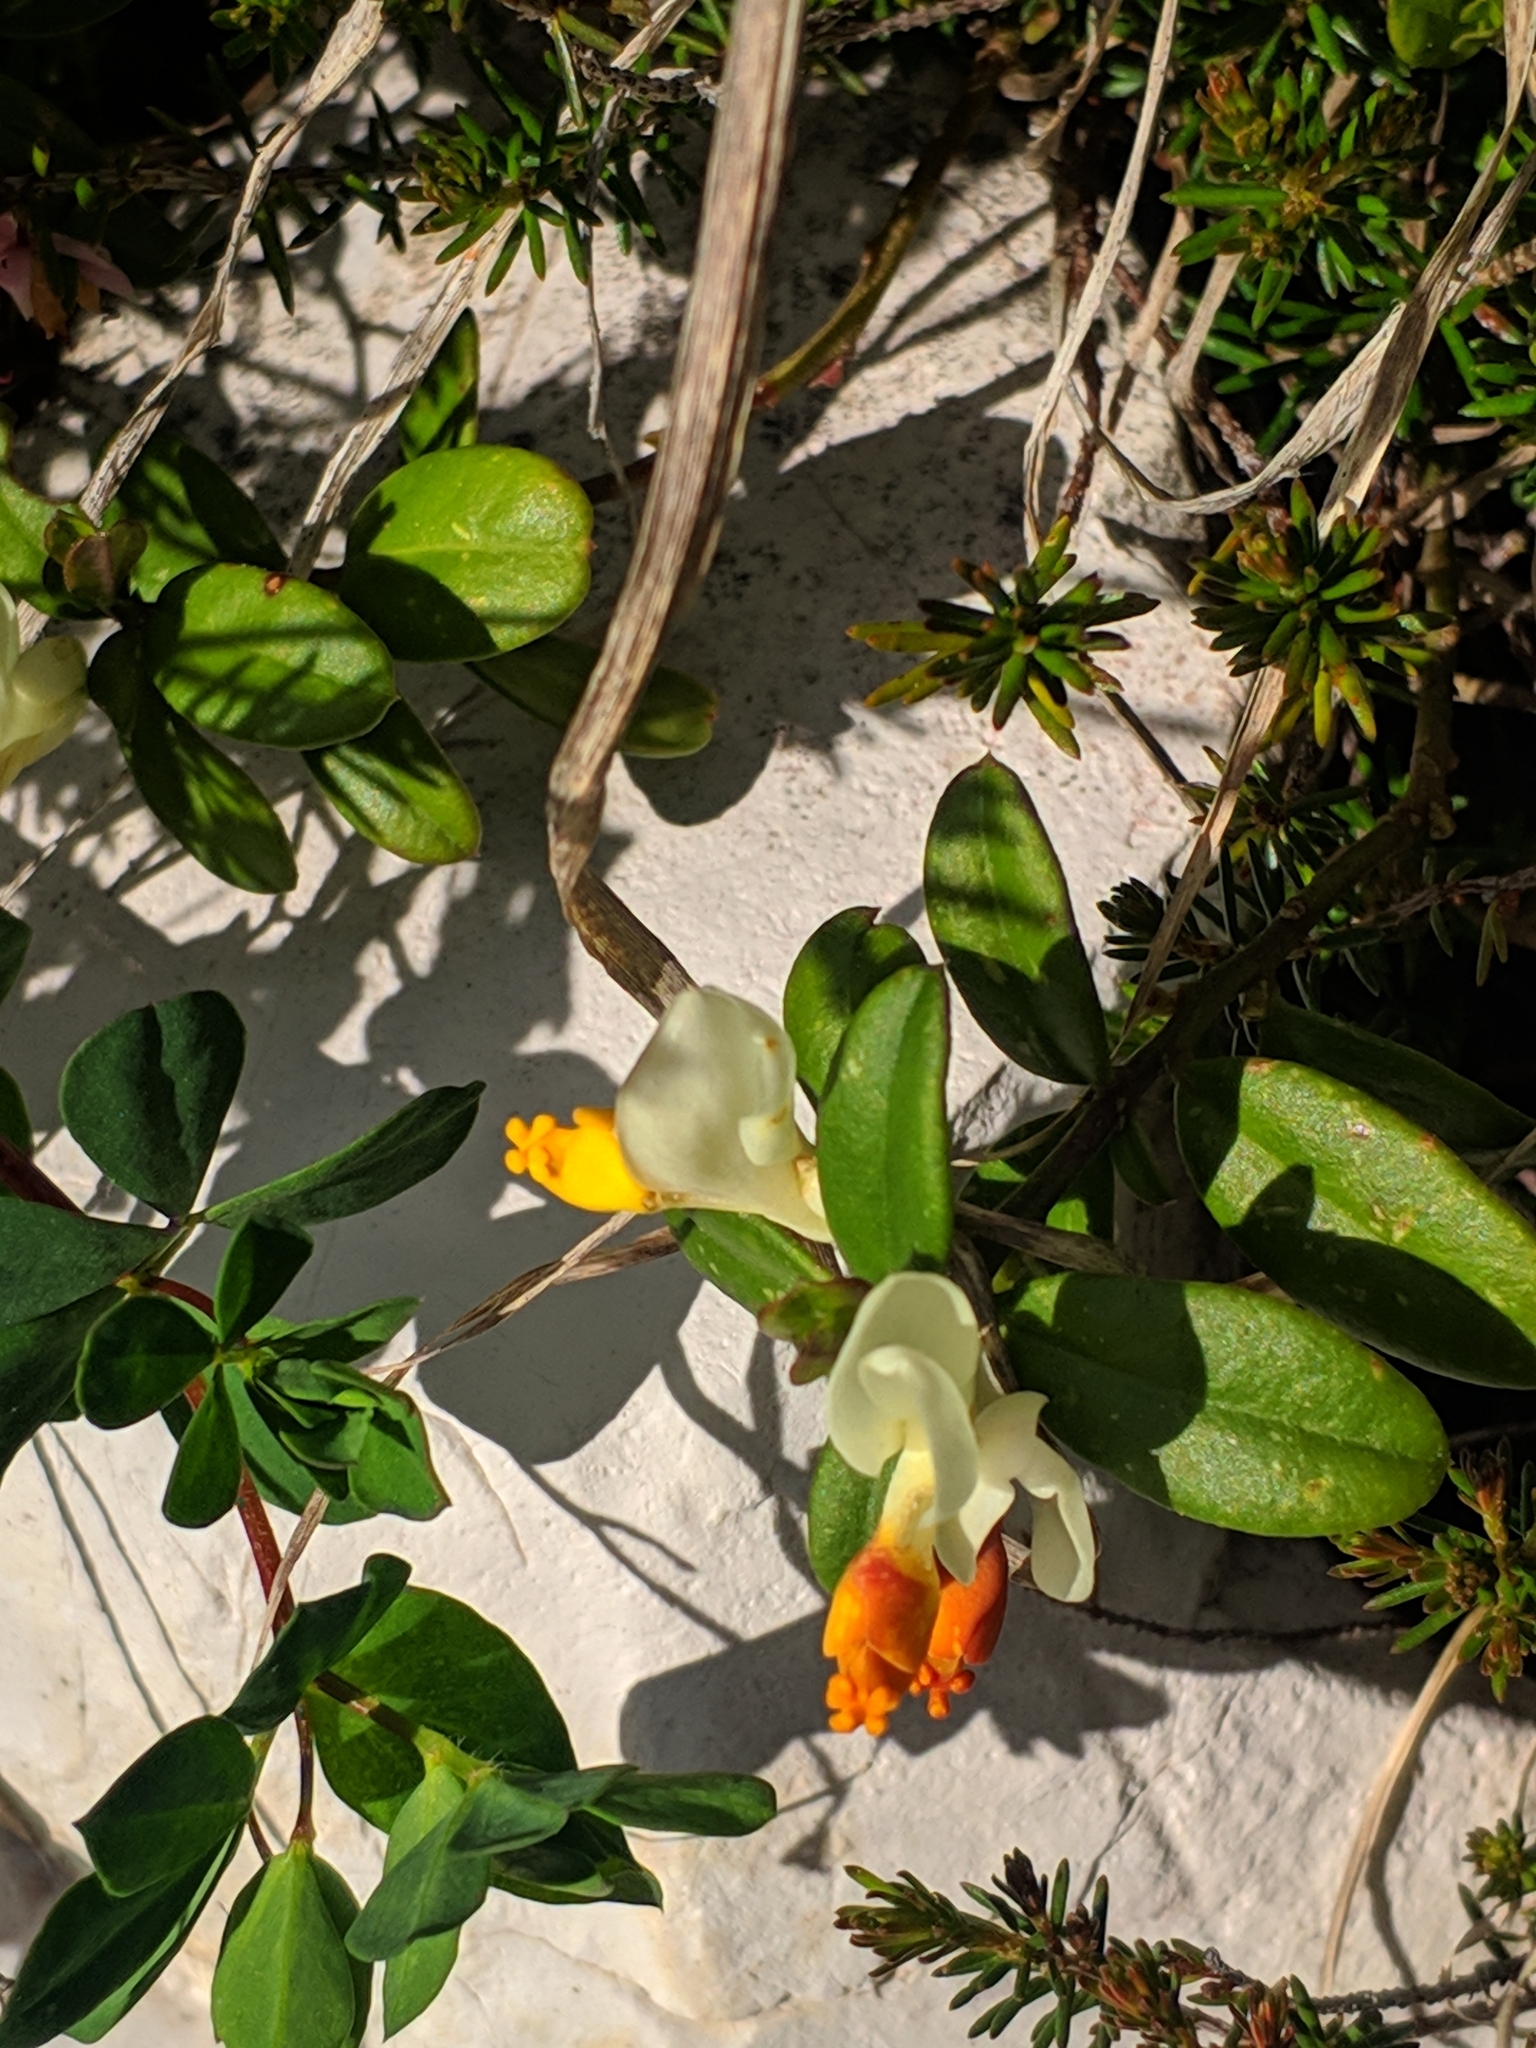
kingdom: Plantae
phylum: Tracheophyta
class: Magnoliopsida
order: Fabales
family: Polygalaceae
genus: Polygaloides
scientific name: Polygaloides chamaebuxus
